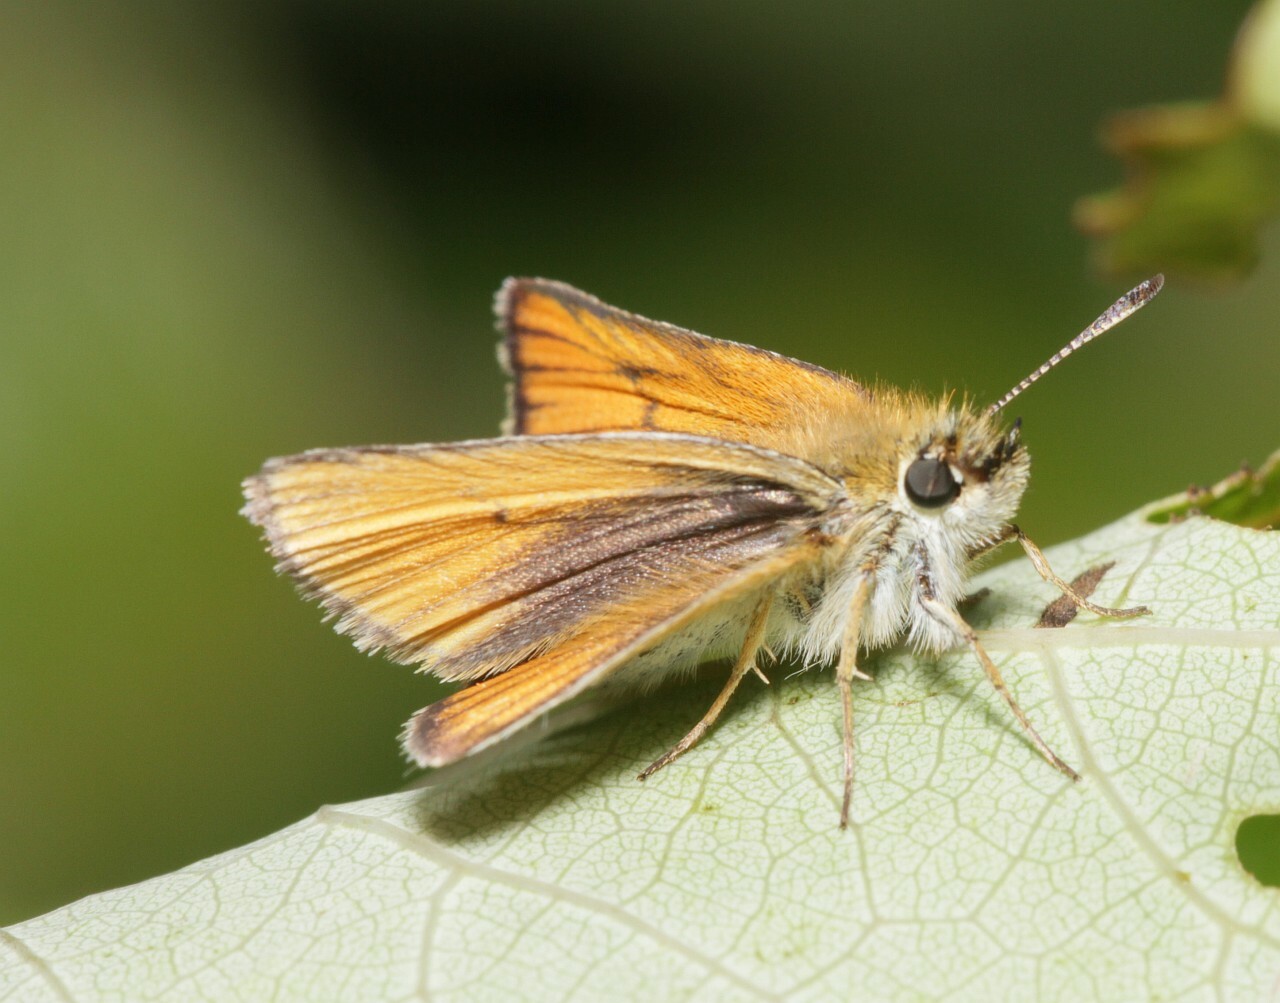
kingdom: Animalia
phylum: Arthropoda
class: Insecta
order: Lepidoptera
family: Hesperiidae
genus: Thymelicus
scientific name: Thymelicus lineola
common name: Essex skipper
